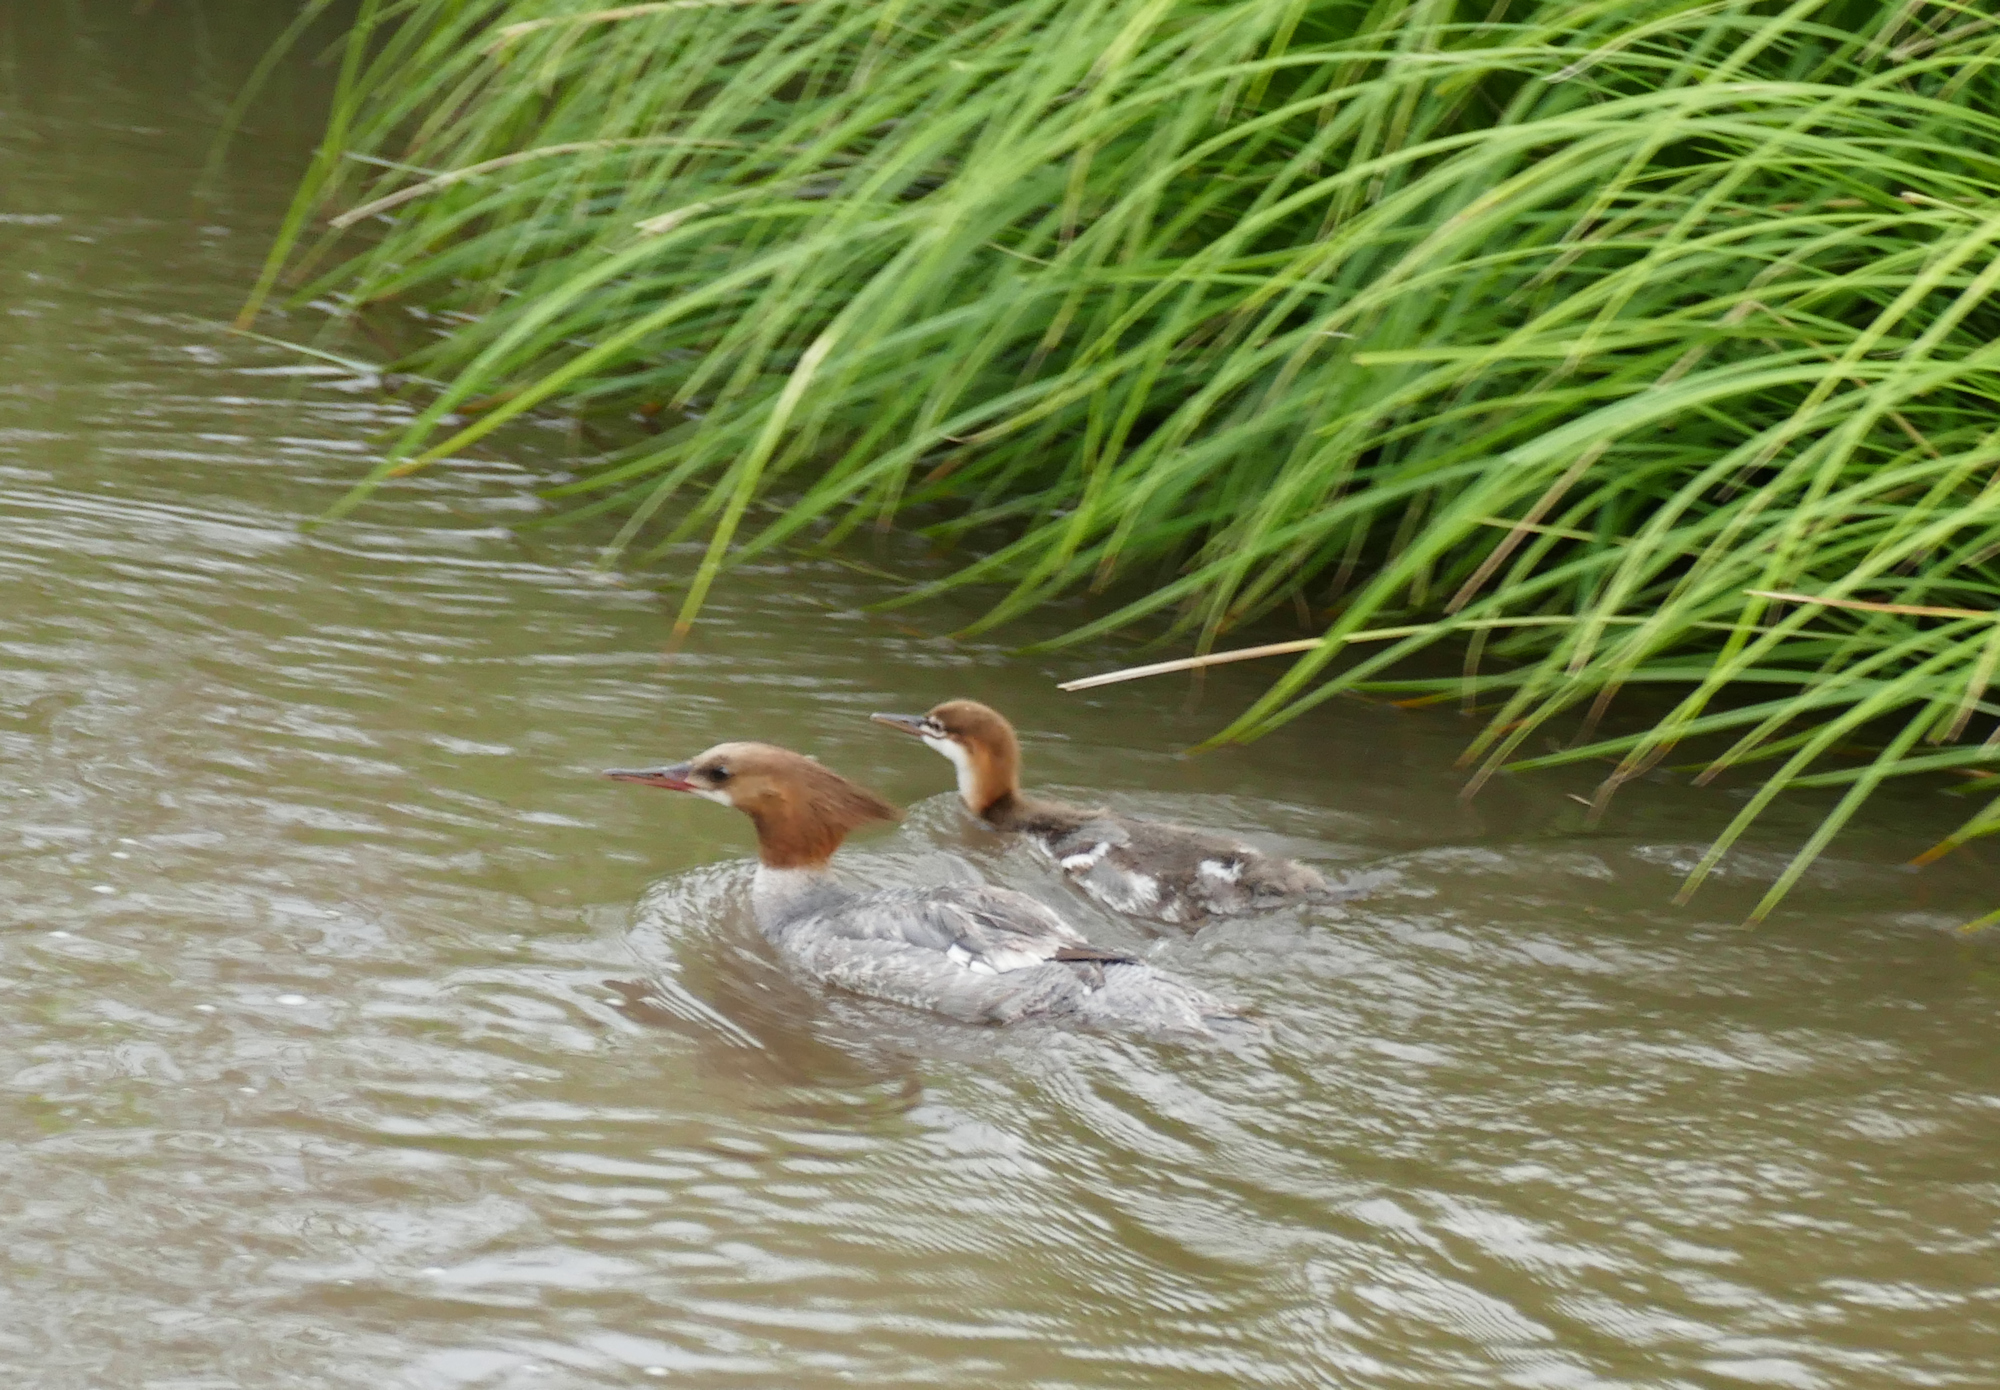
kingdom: Animalia
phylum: Chordata
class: Aves
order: Anseriformes
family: Anatidae
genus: Mergus
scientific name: Mergus merganser
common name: Common merganser
